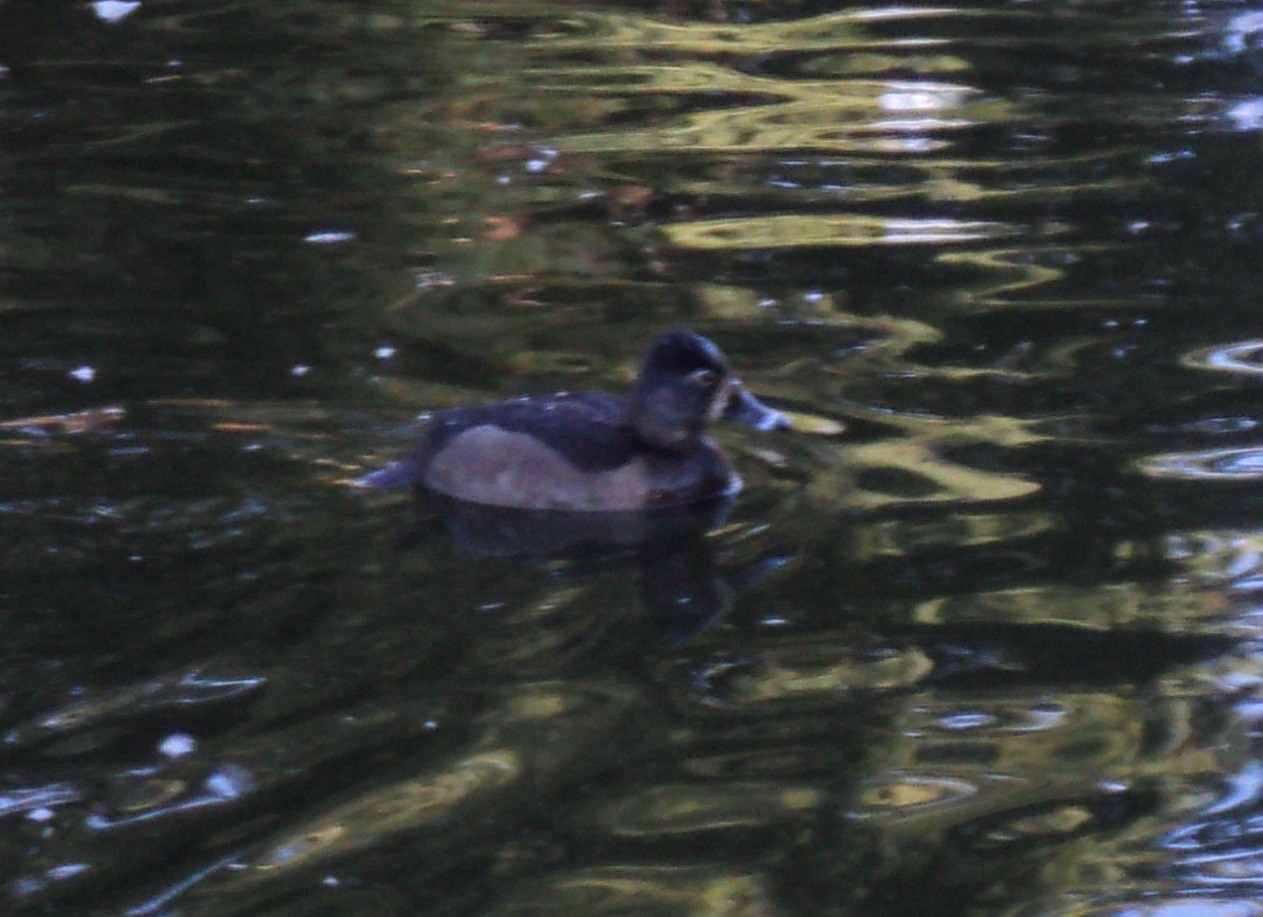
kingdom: Animalia
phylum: Chordata
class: Aves
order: Anseriformes
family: Anatidae
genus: Aythya
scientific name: Aythya collaris
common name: Ring-necked duck
